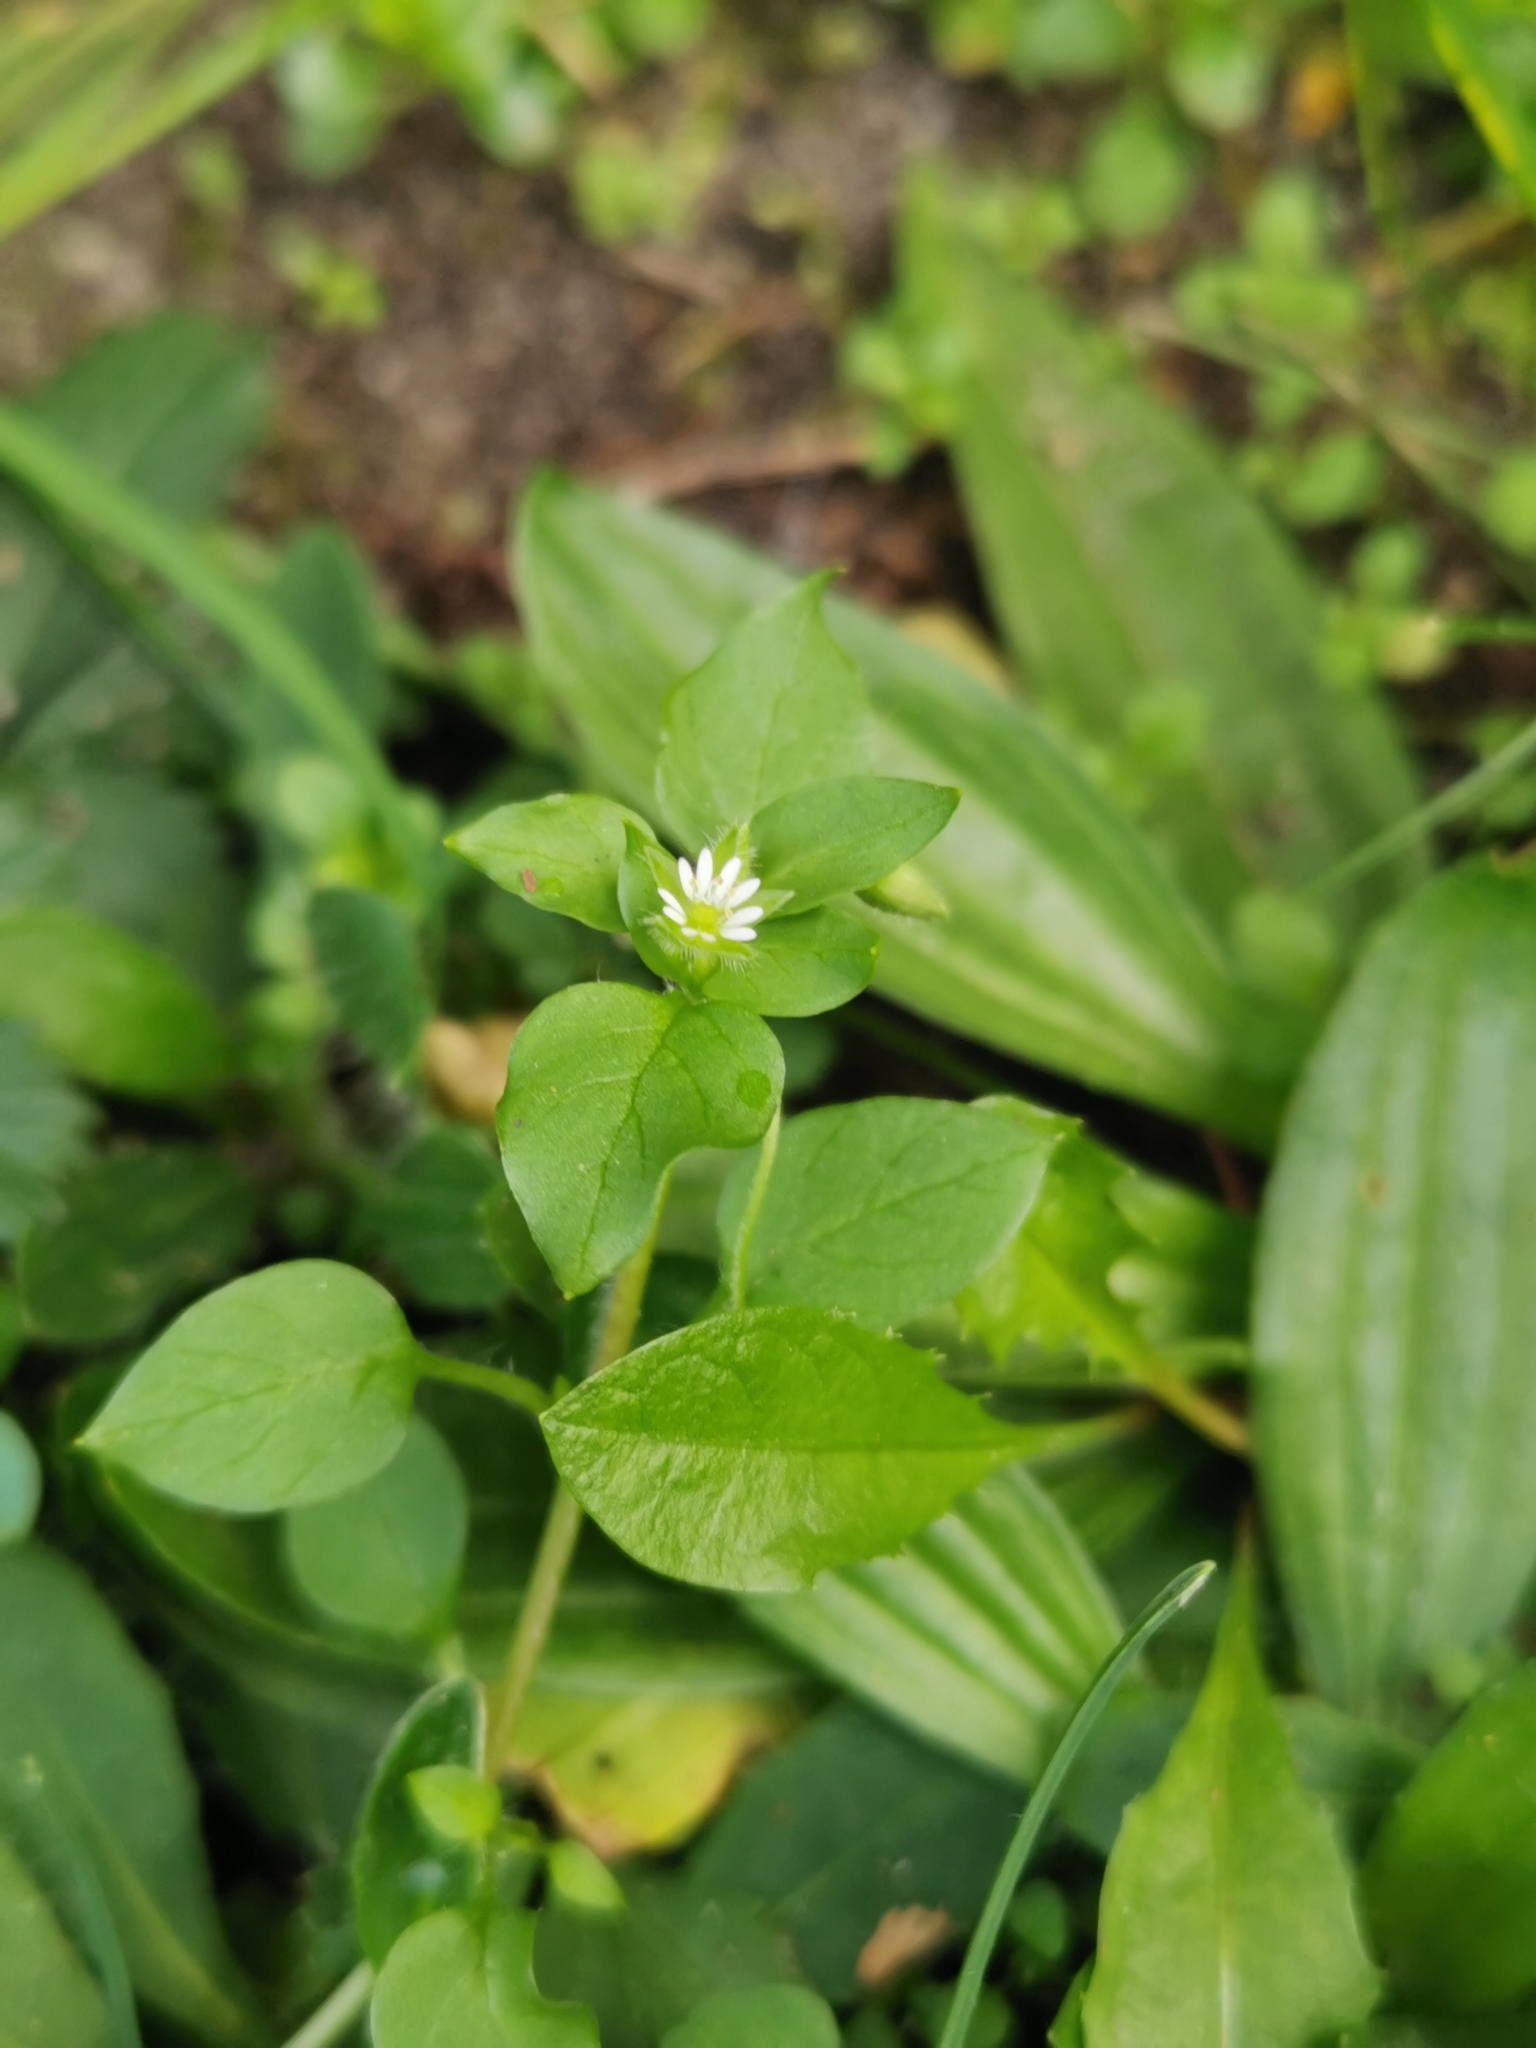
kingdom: Plantae
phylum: Tracheophyta
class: Magnoliopsida
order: Caryophyllales
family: Caryophyllaceae
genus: Stellaria
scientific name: Stellaria media
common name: Common chickweed
